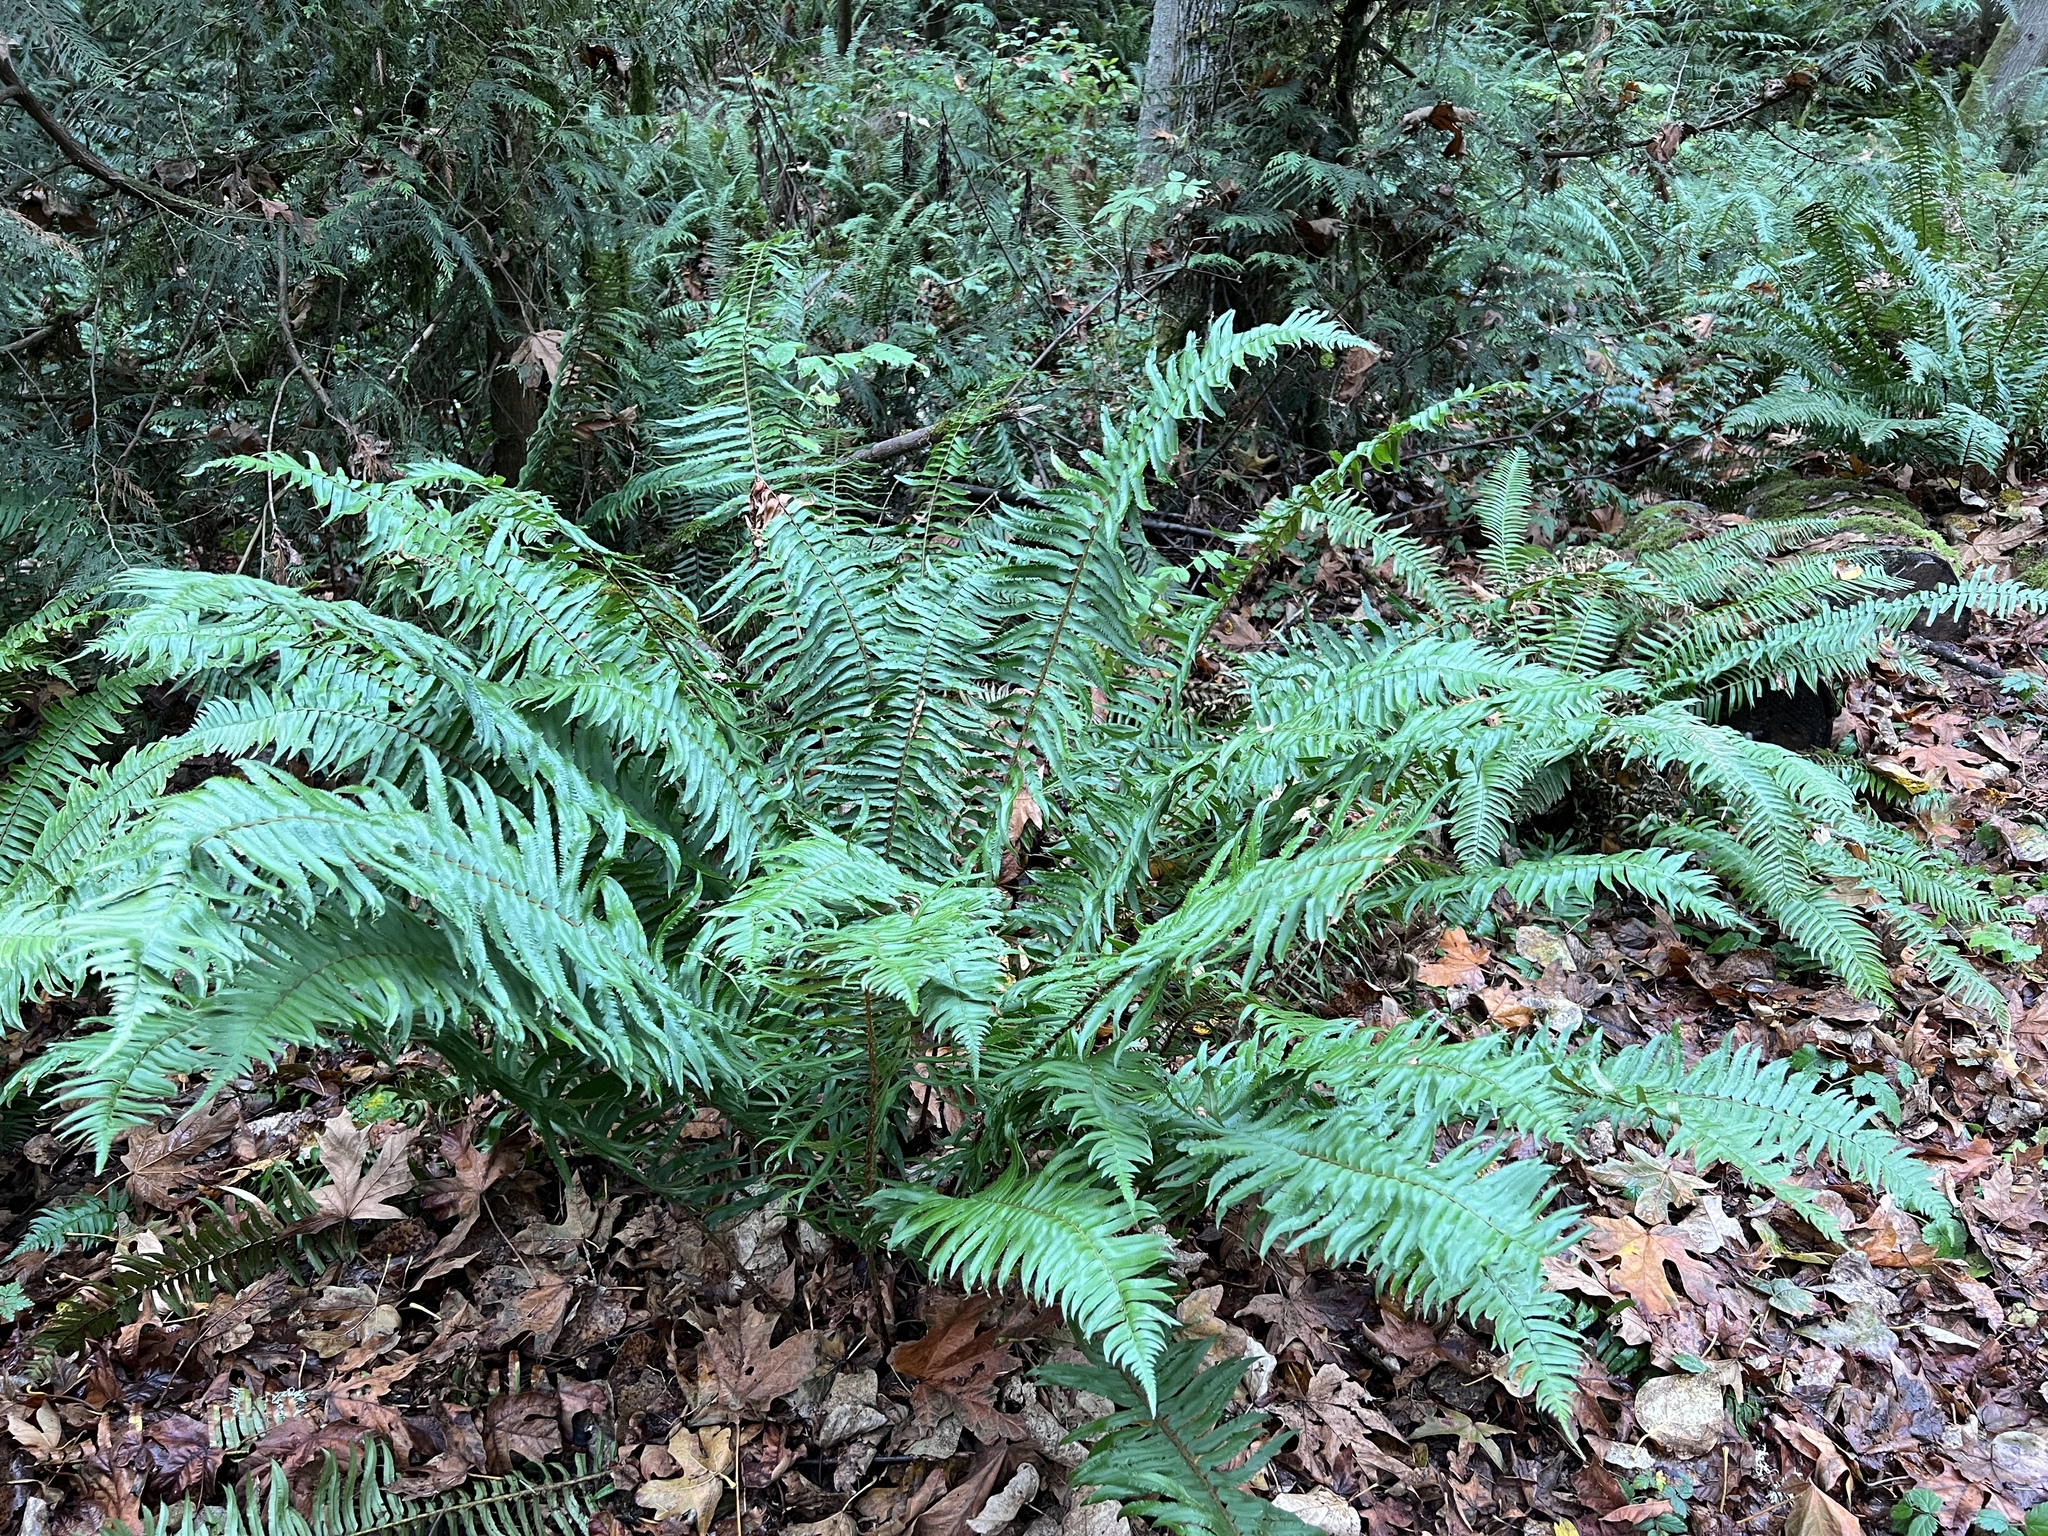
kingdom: Plantae
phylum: Tracheophyta
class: Polypodiopsida
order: Polypodiales
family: Dryopteridaceae
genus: Polystichum
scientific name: Polystichum munitum
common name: Western sword-fern
